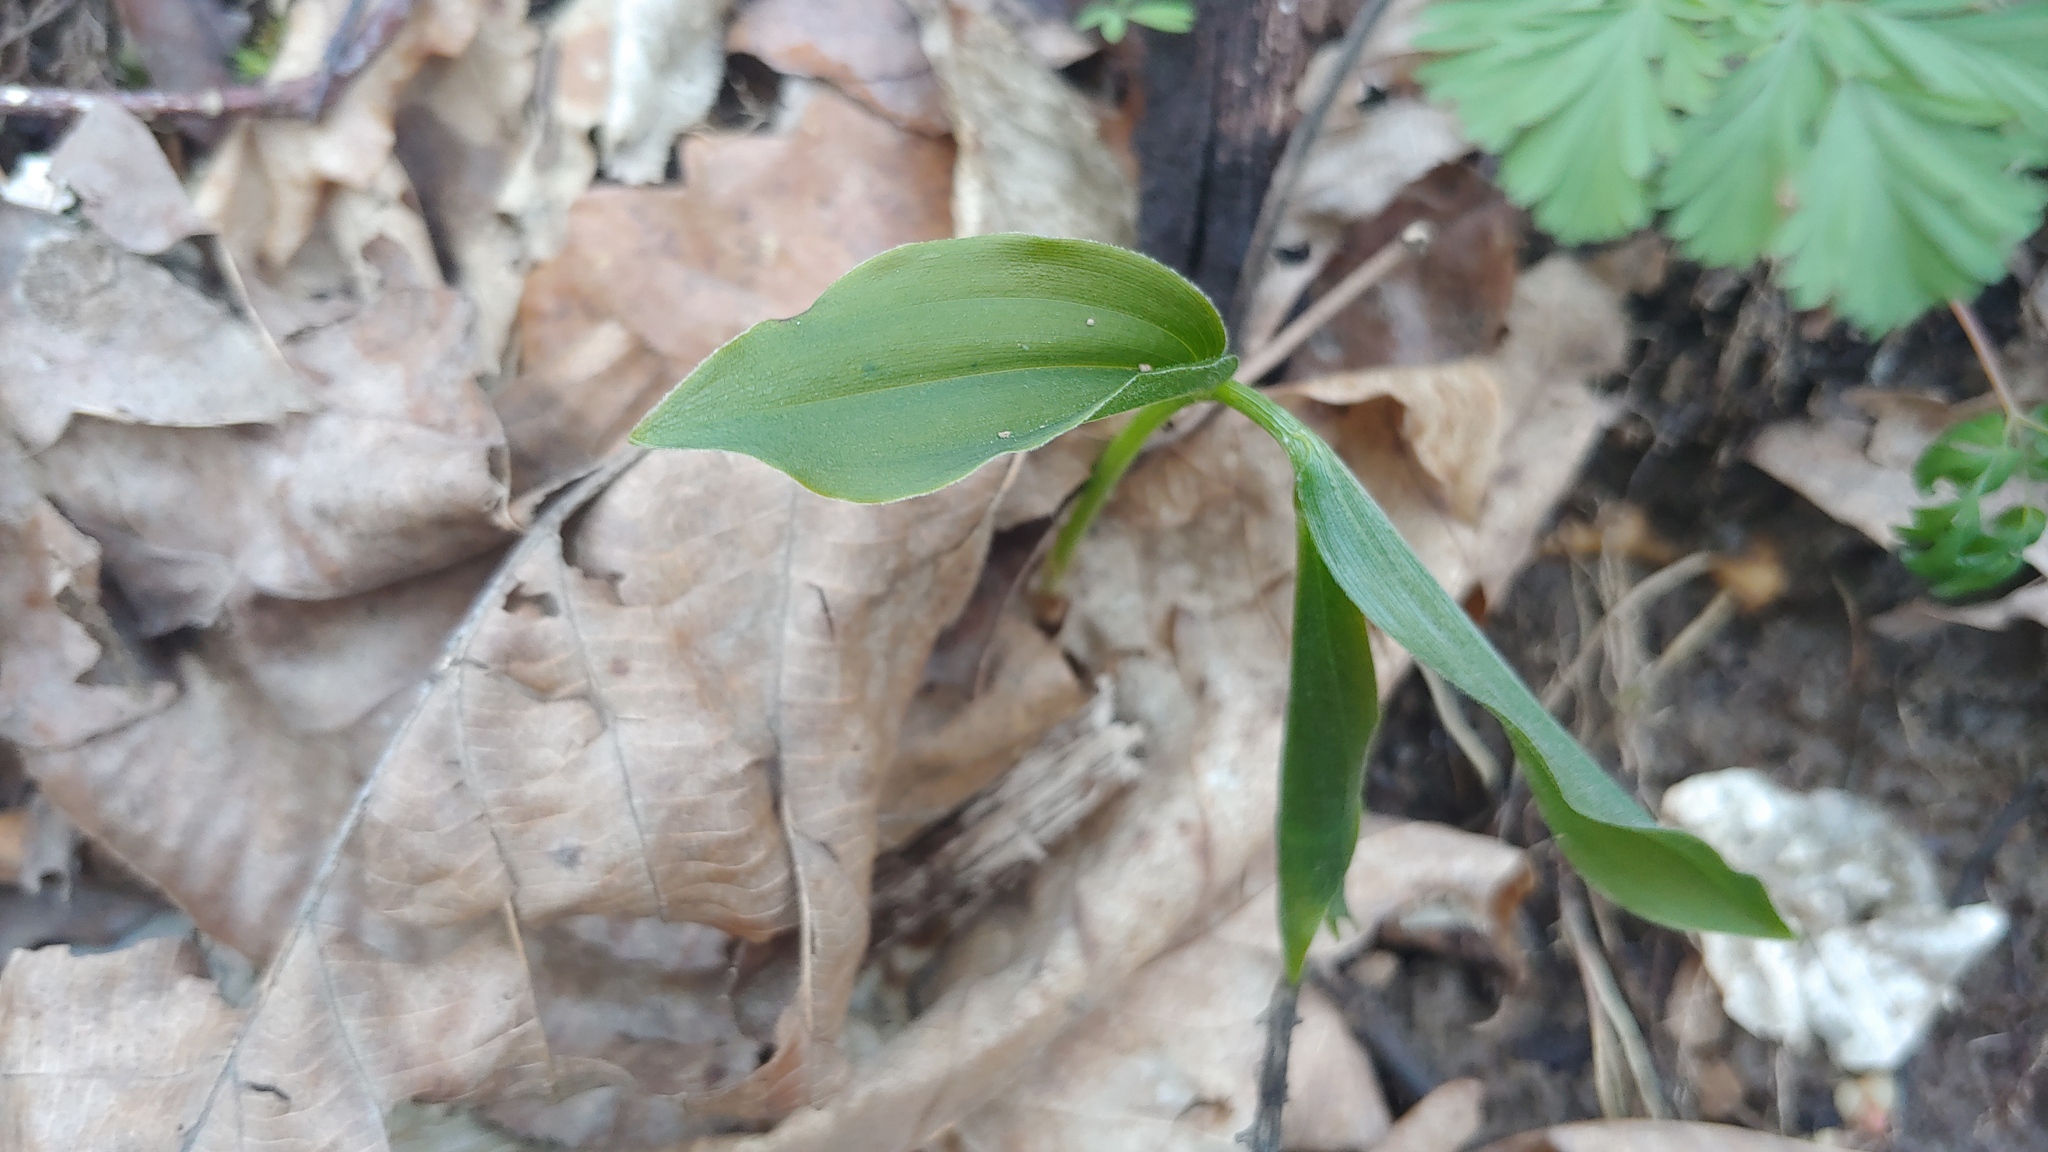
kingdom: Plantae
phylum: Tracheophyta
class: Liliopsida
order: Asparagales
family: Asparagaceae
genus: Maianthemum
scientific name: Maianthemum racemosum
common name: False spikenard
